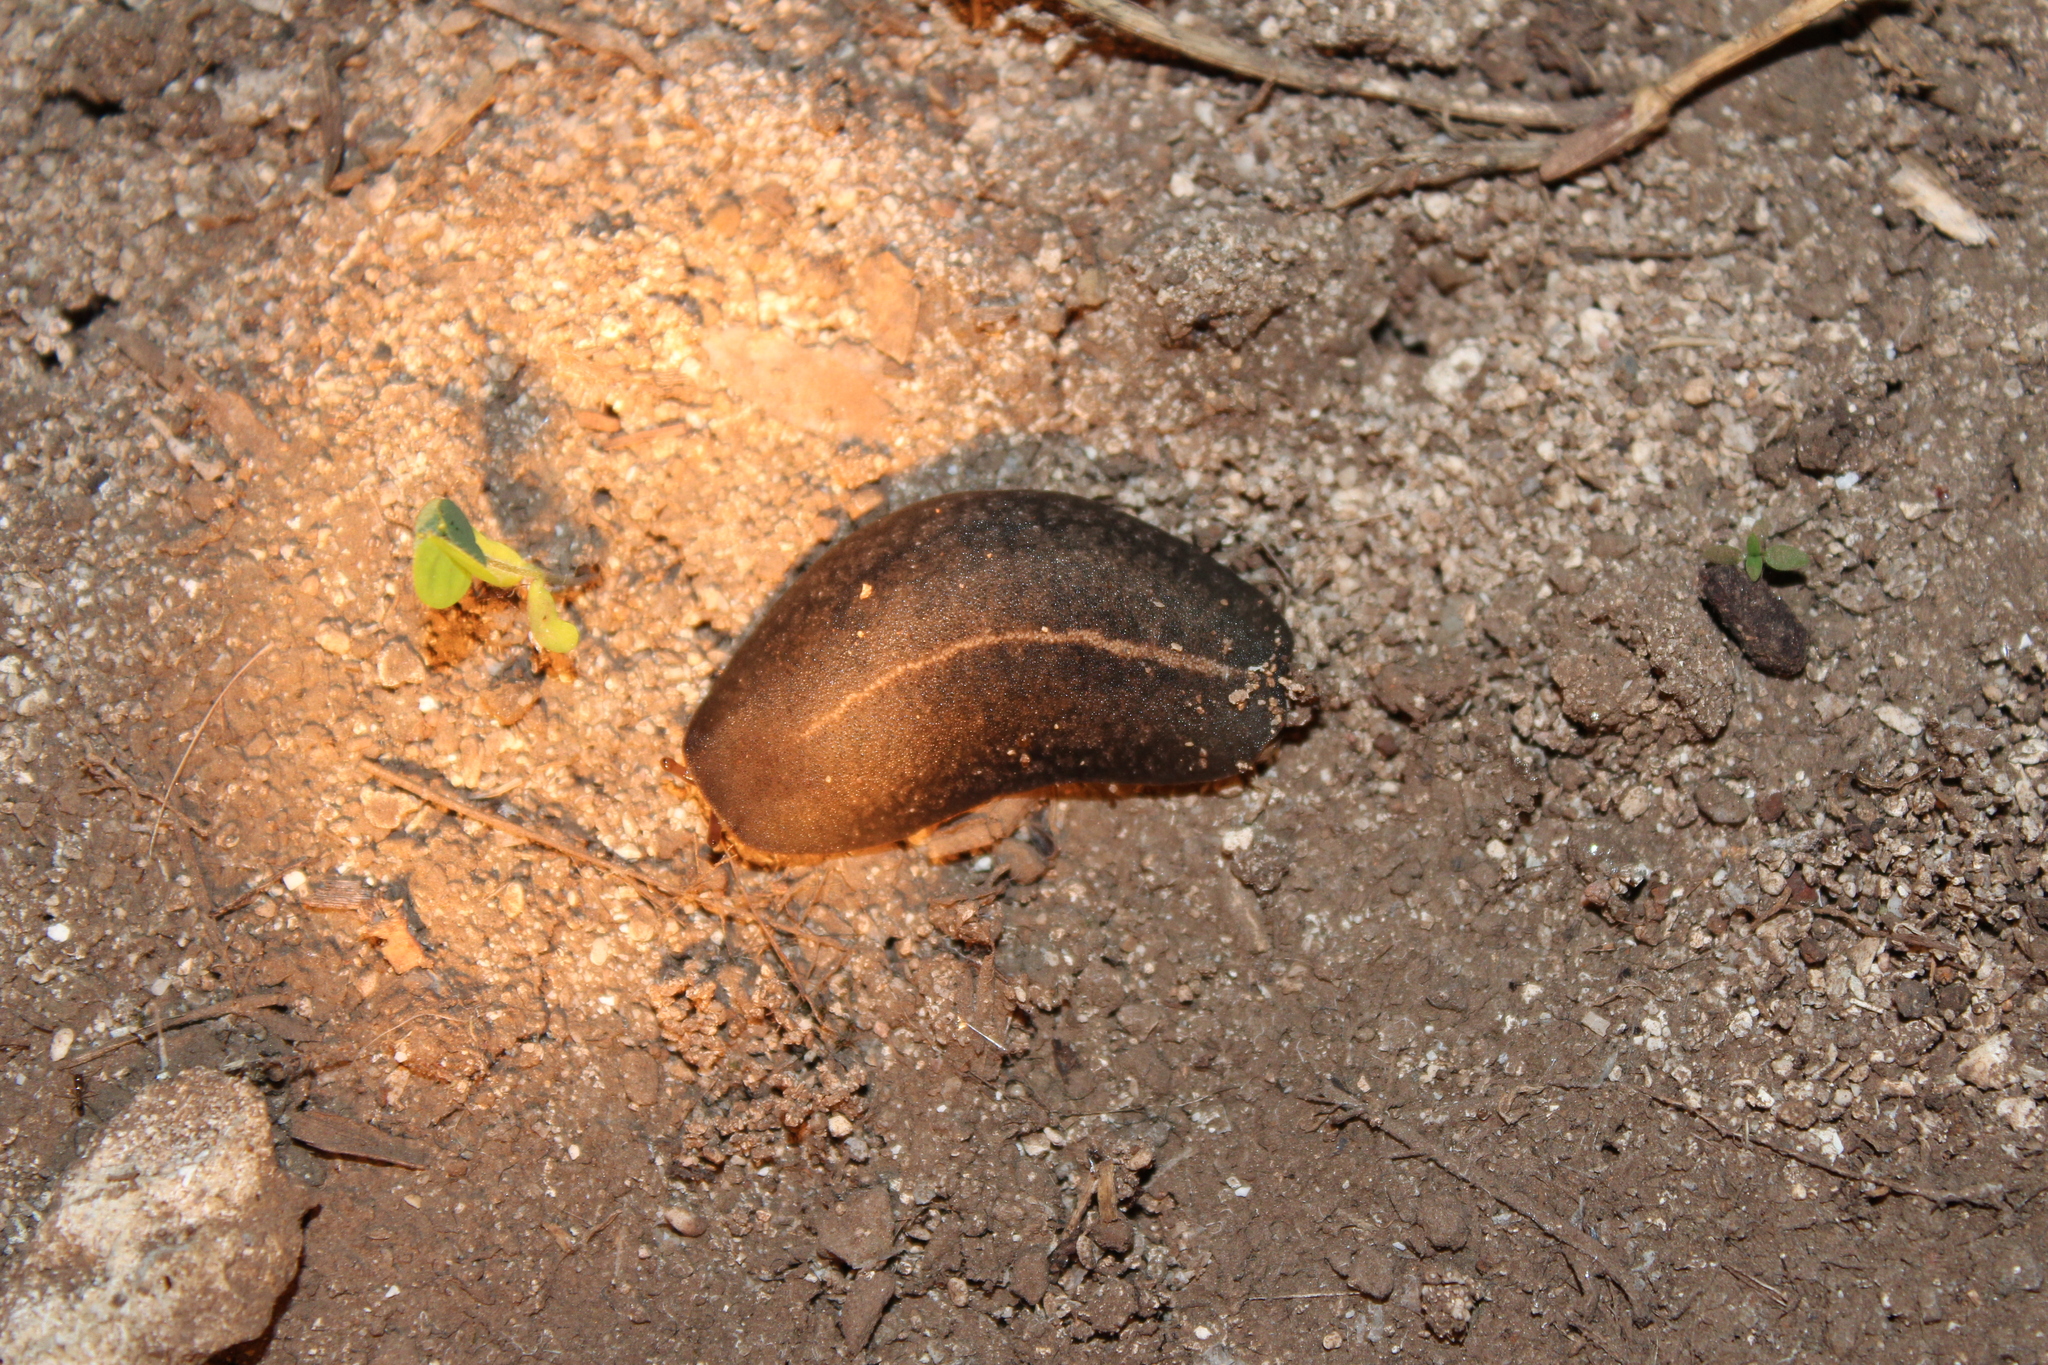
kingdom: Animalia
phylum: Mollusca
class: Gastropoda
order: Systellommatophora
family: Veronicellidae
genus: Laevicaulis
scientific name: Laevicaulis alte
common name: Tropical leatherleaf
